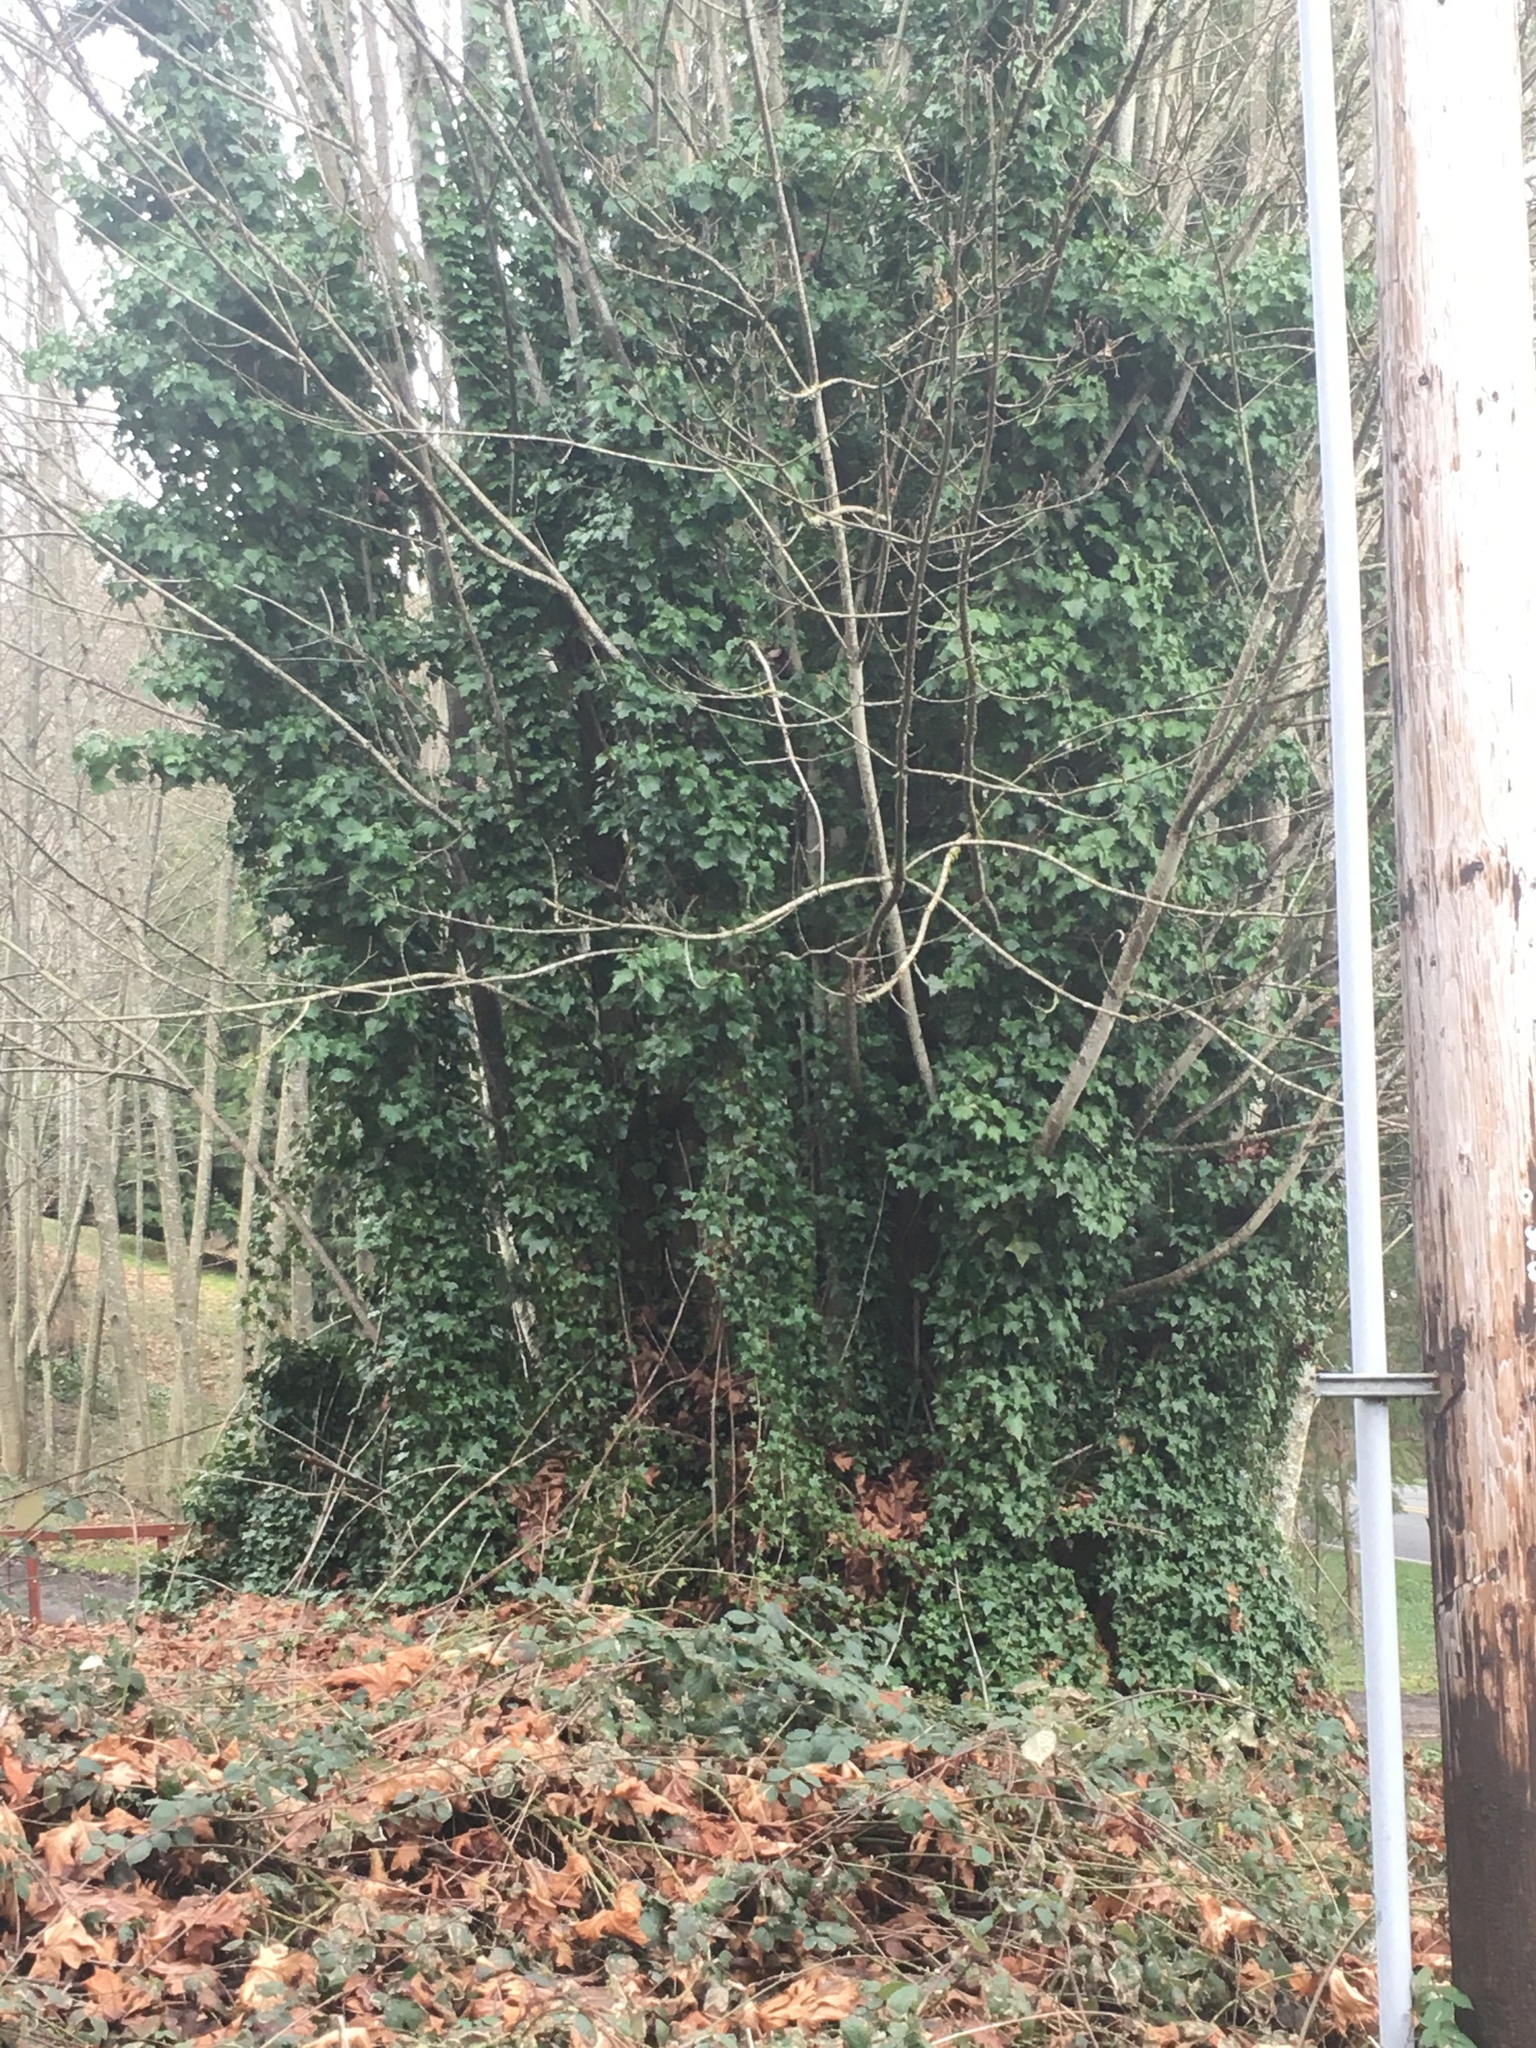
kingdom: Plantae
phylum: Tracheophyta
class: Magnoliopsida
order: Apiales
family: Araliaceae
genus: Hedera
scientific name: Hedera helix
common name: Ivy
